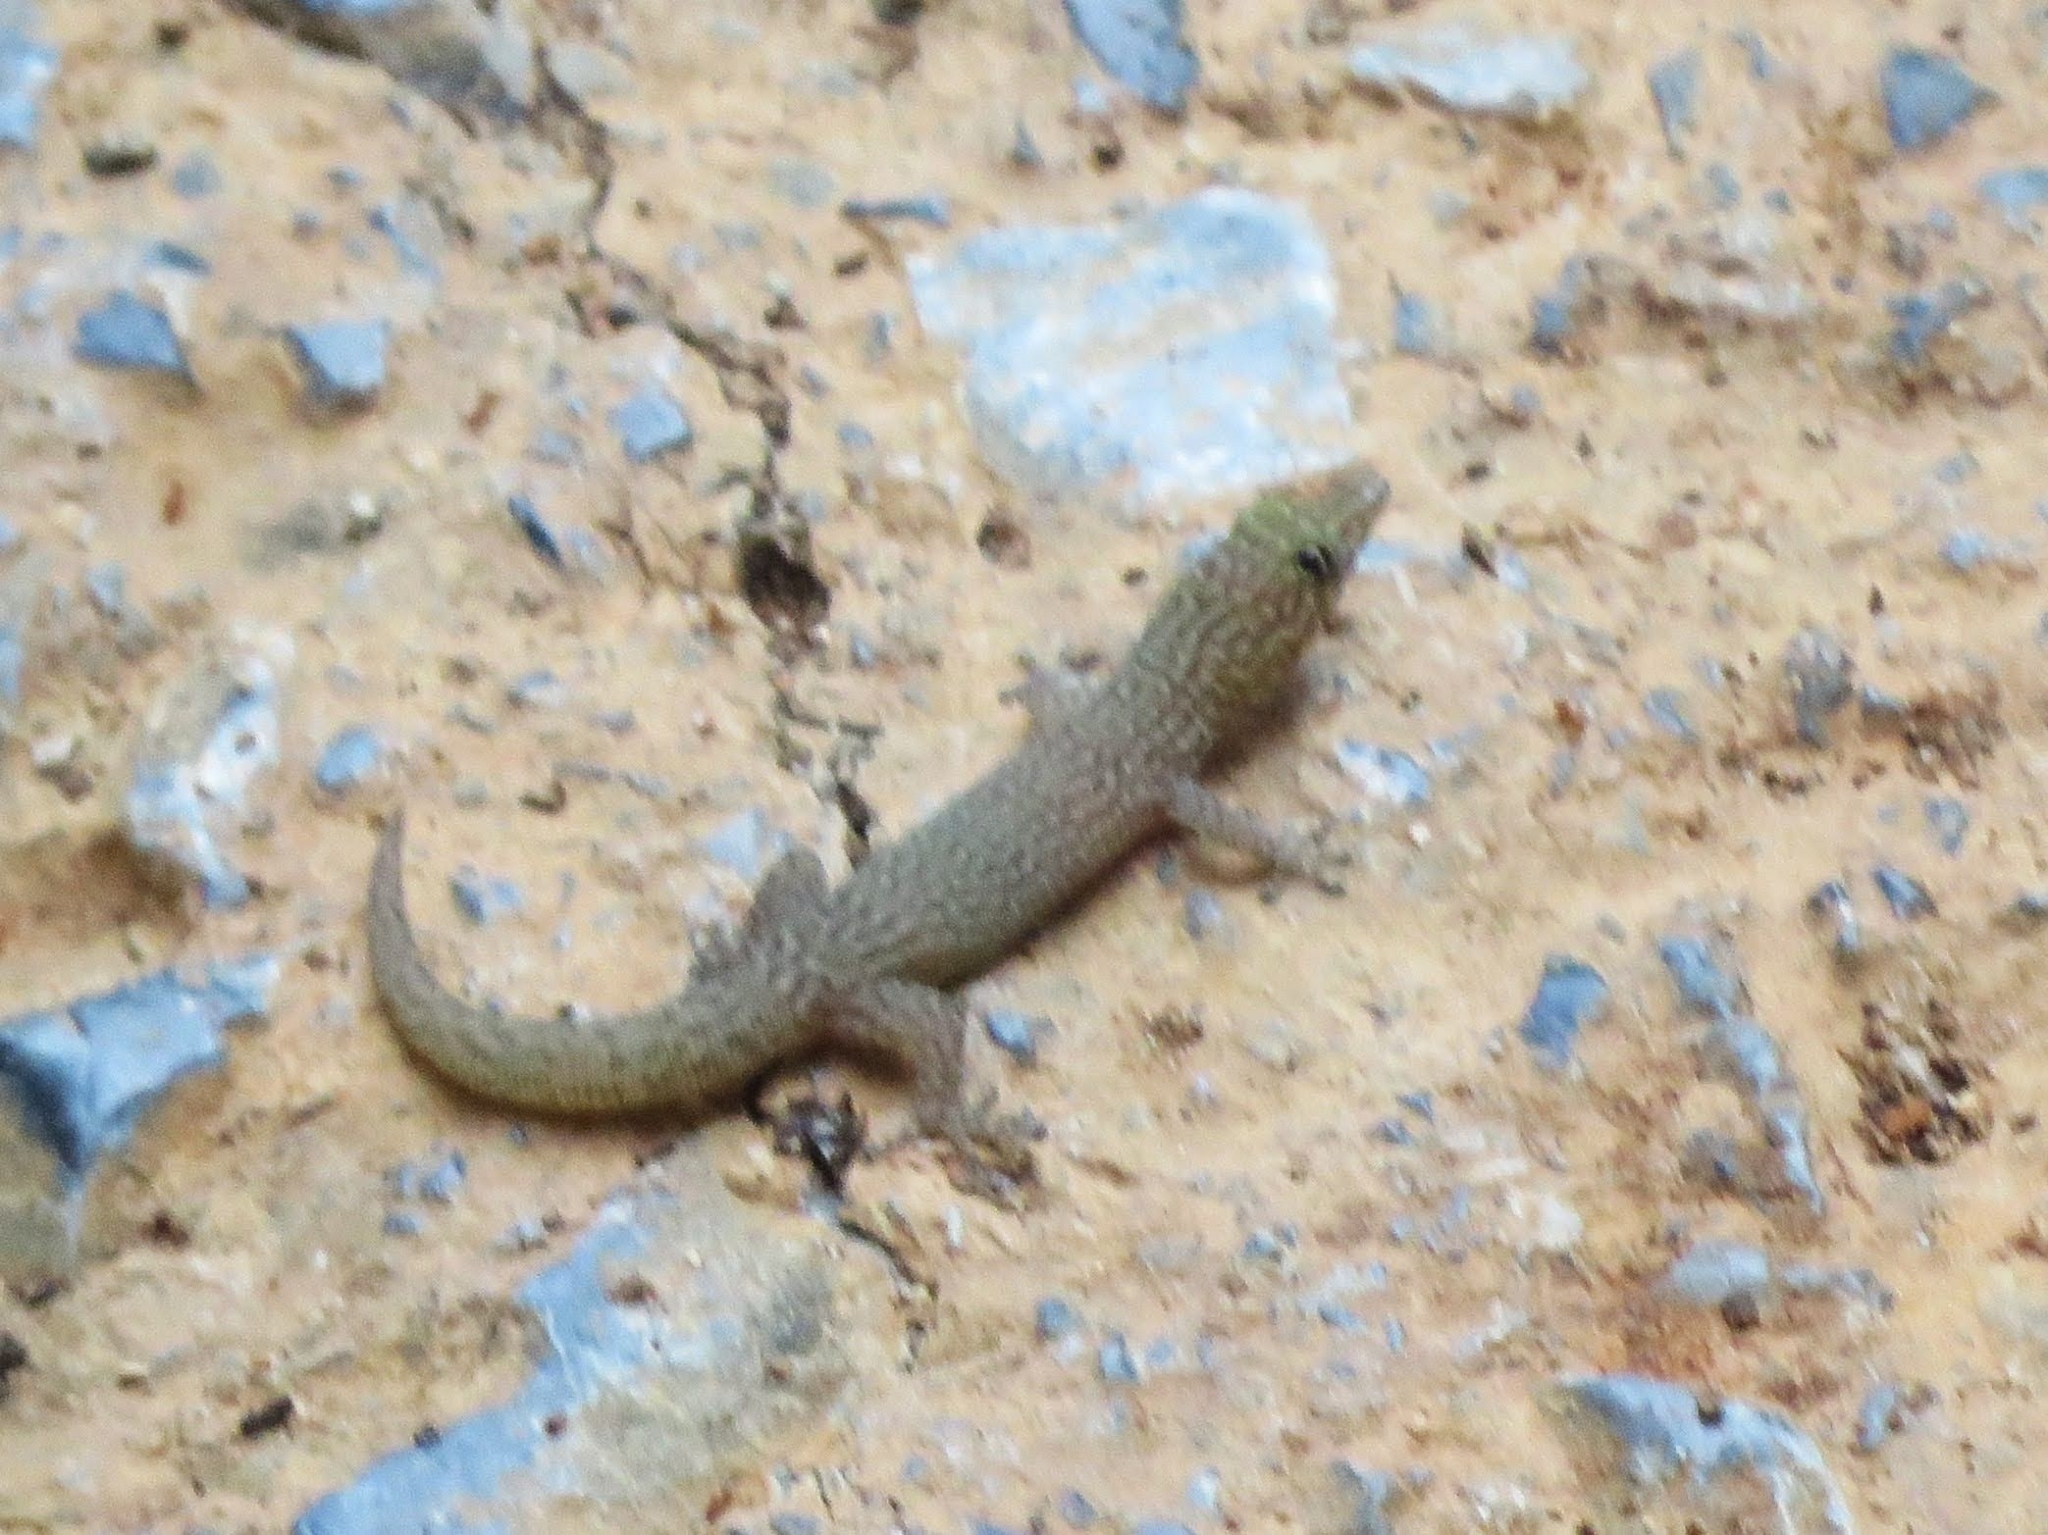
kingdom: Animalia
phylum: Chordata
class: Squamata
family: Sphaerodactylidae
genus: Sphaerodactylus
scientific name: Sphaerodactylus elegans
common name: Ashy gecko
